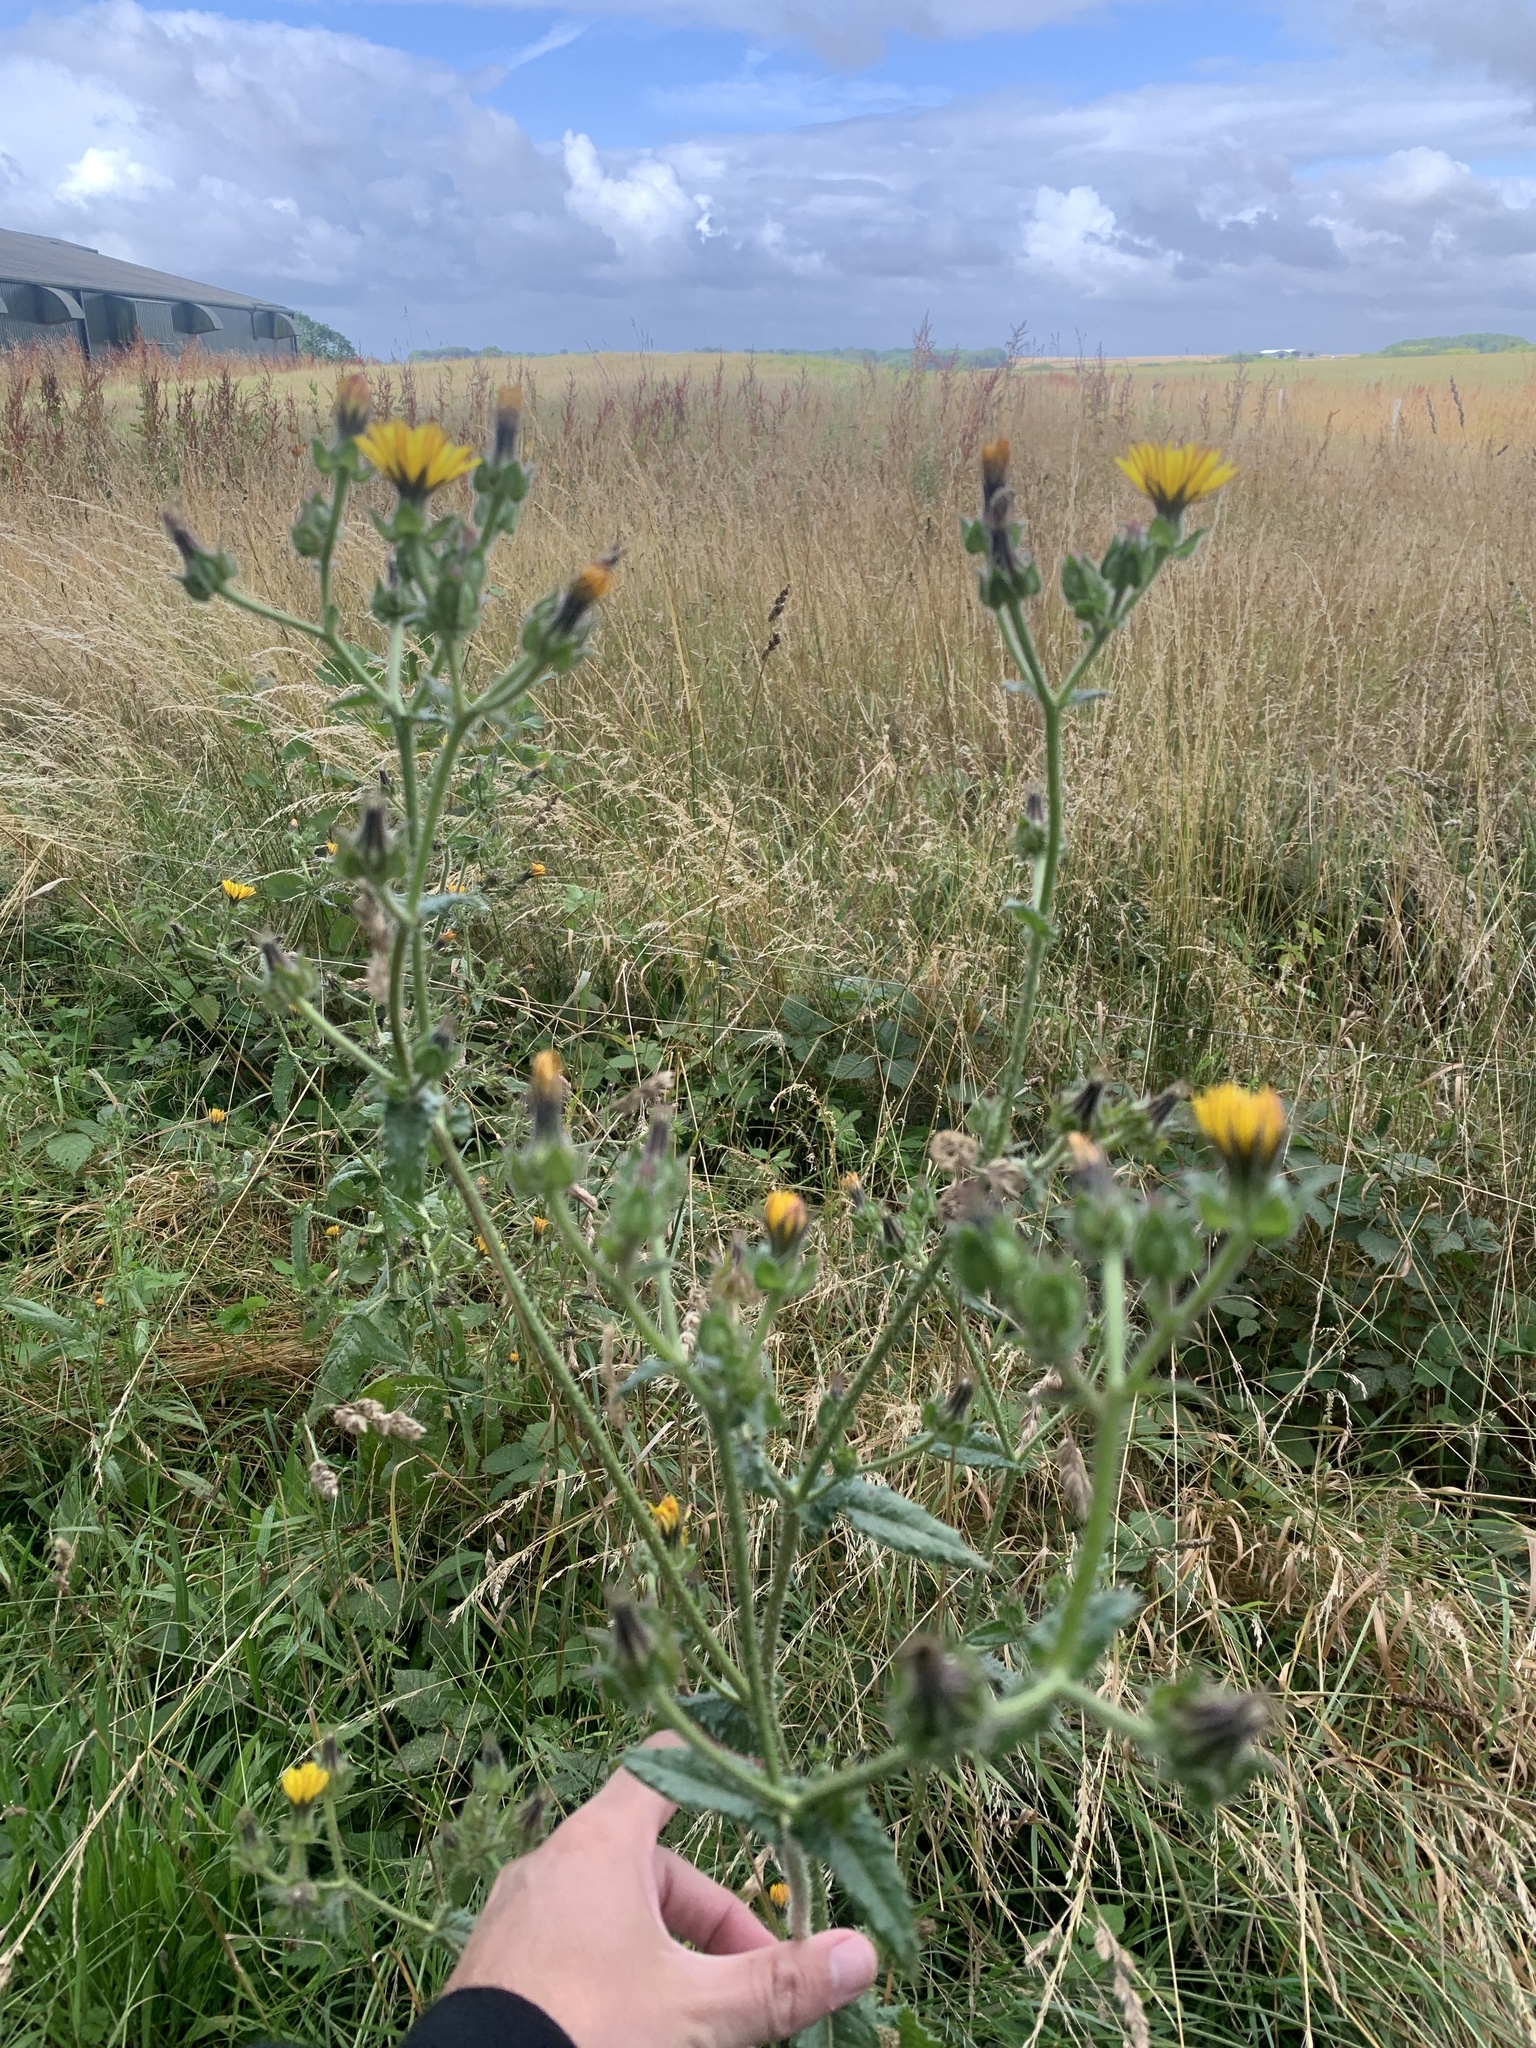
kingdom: Plantae
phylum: Tracheophyta
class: Magnoliopsida
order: Asterales
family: Asteraceae
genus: Helminthotheca
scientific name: Helminthotheca echioides
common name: Ox-tongue
